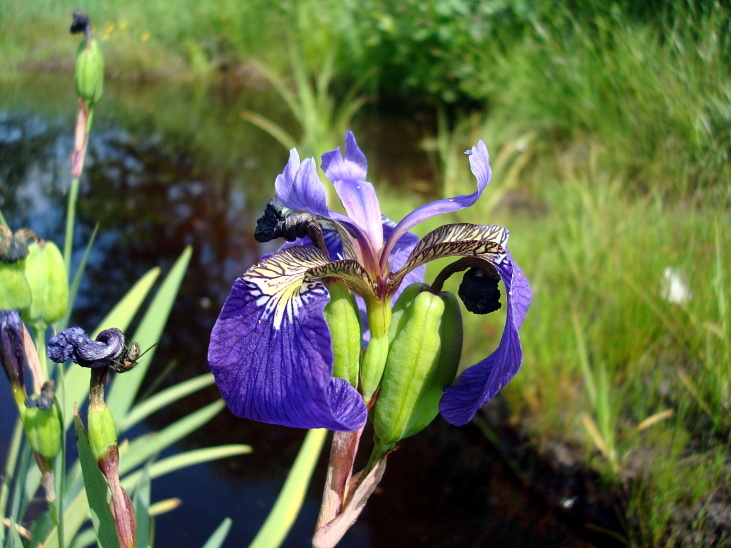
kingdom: Plantae
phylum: Tracheophyta
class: Liliopsida
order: Asparagales
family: Iridaceae
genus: Iris
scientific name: Iris setosa
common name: Arctic blue flag
